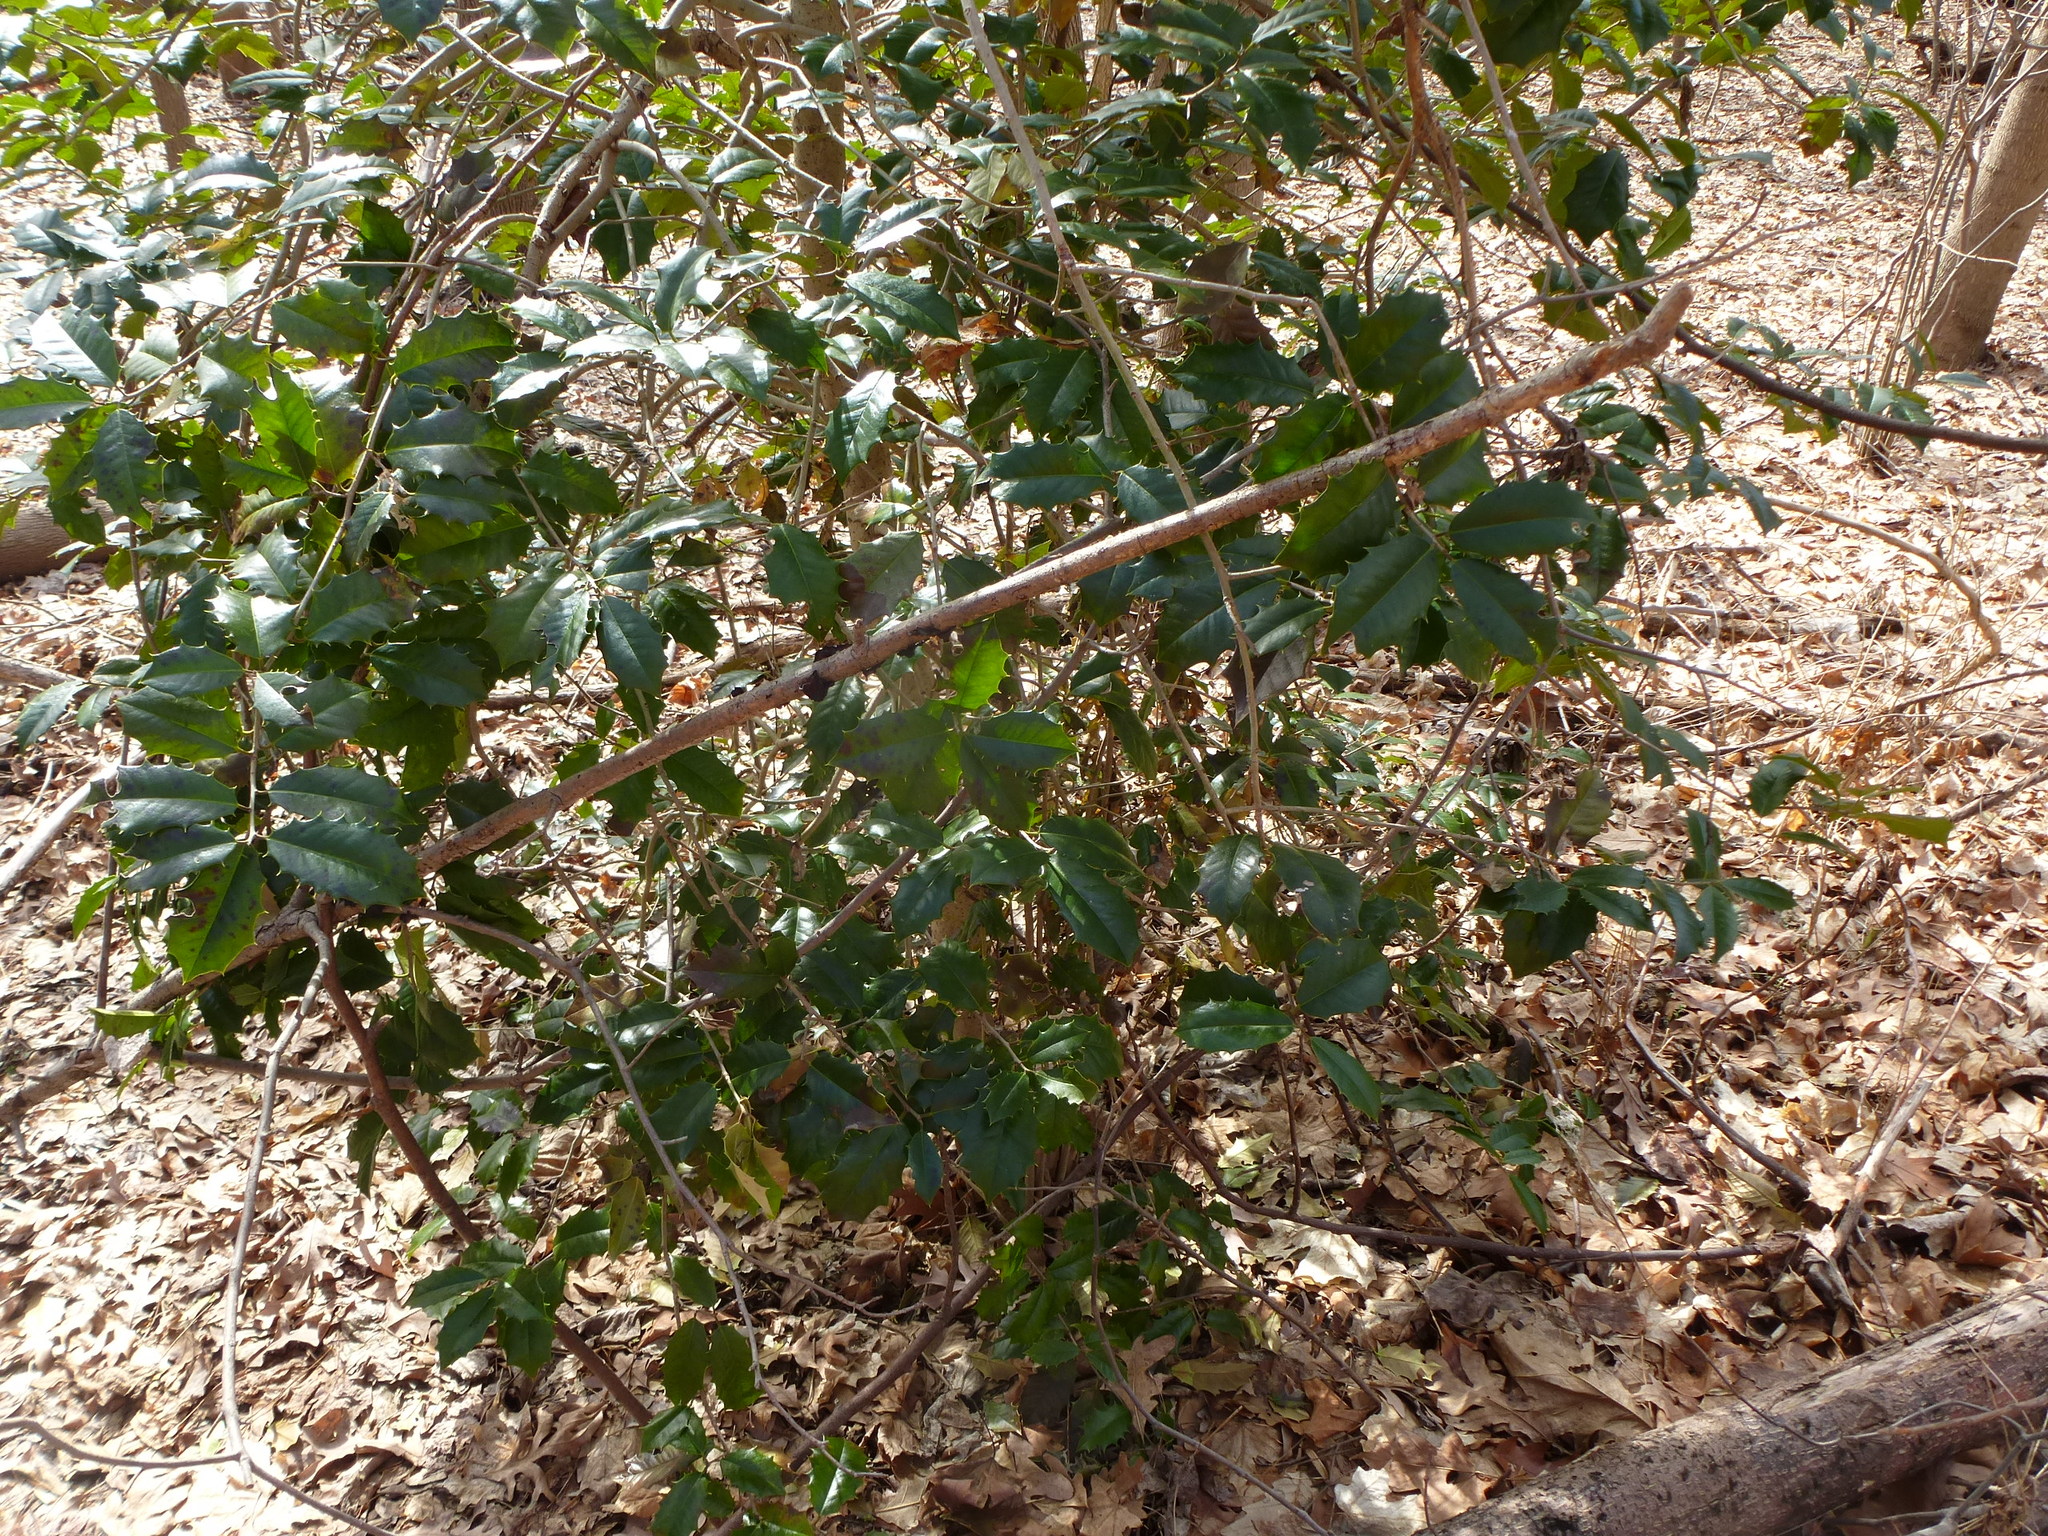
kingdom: Plantae
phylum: Tracheophyta
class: Magnoliopsida
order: Aquifoliales
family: Aquifoliaceae
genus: Ilex
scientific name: Ilex opaca
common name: American holly
